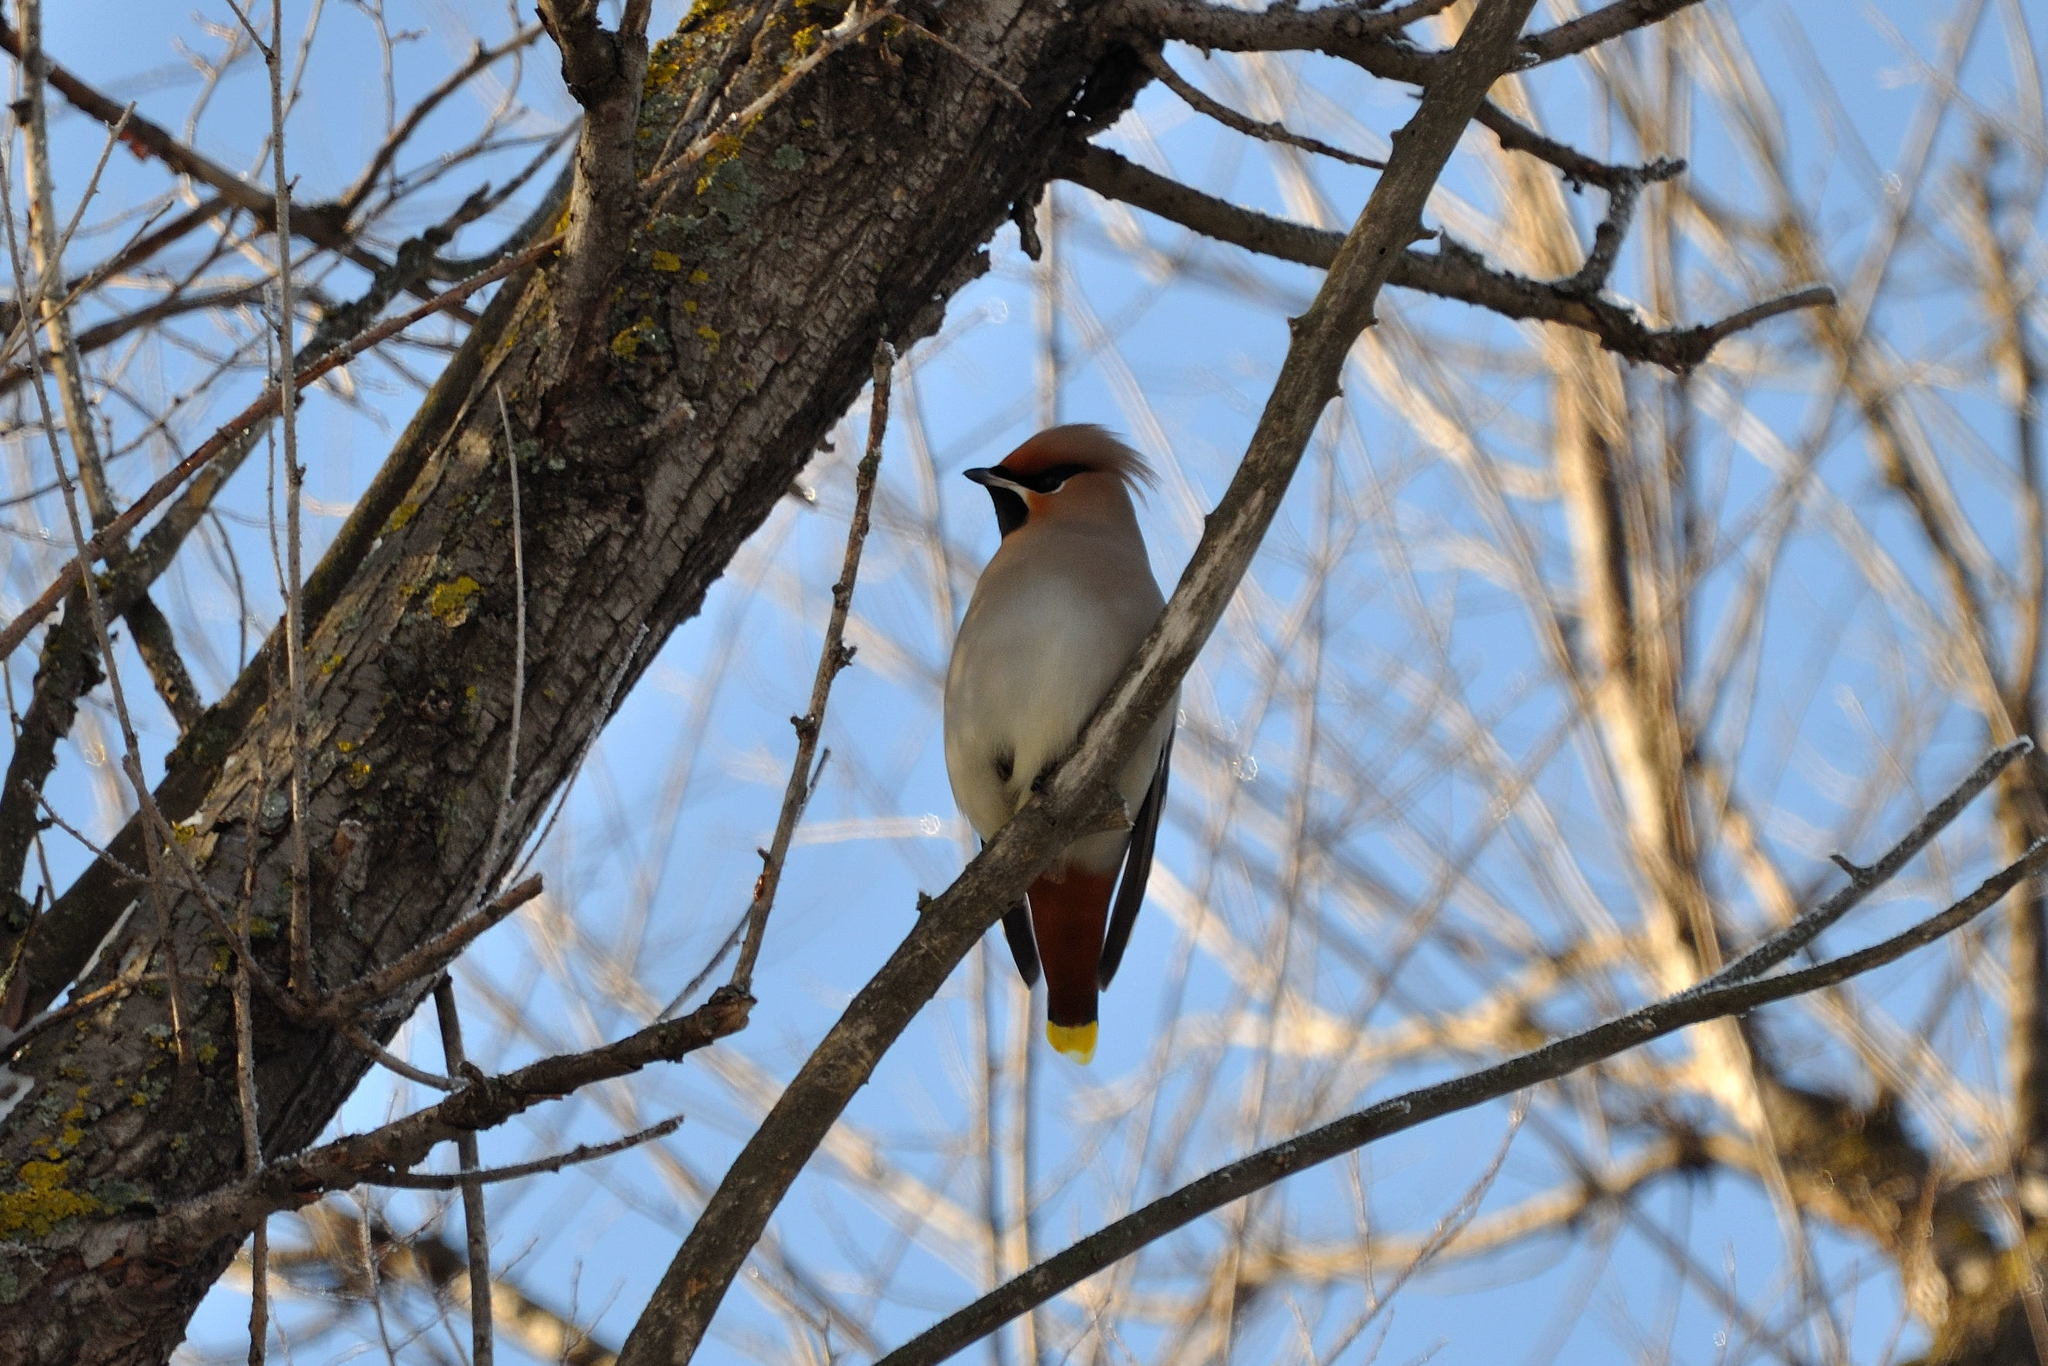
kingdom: Animalia
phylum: Chordata
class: Aves
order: Passeriformes
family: Bombycillidae
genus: Bombycilla
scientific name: Bombycilla garrulus
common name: Bohemian waxwing
